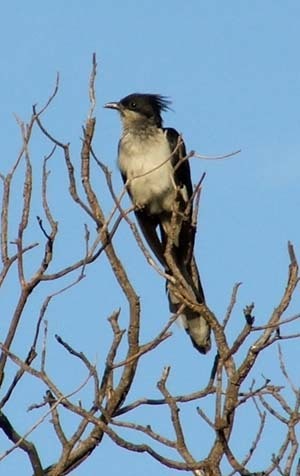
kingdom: Animalia
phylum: Chordata
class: Aves
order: Cuculiformes
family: Cuculidae
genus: Clamator
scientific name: Clamator jacobinus
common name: Jacobin cuckoo
